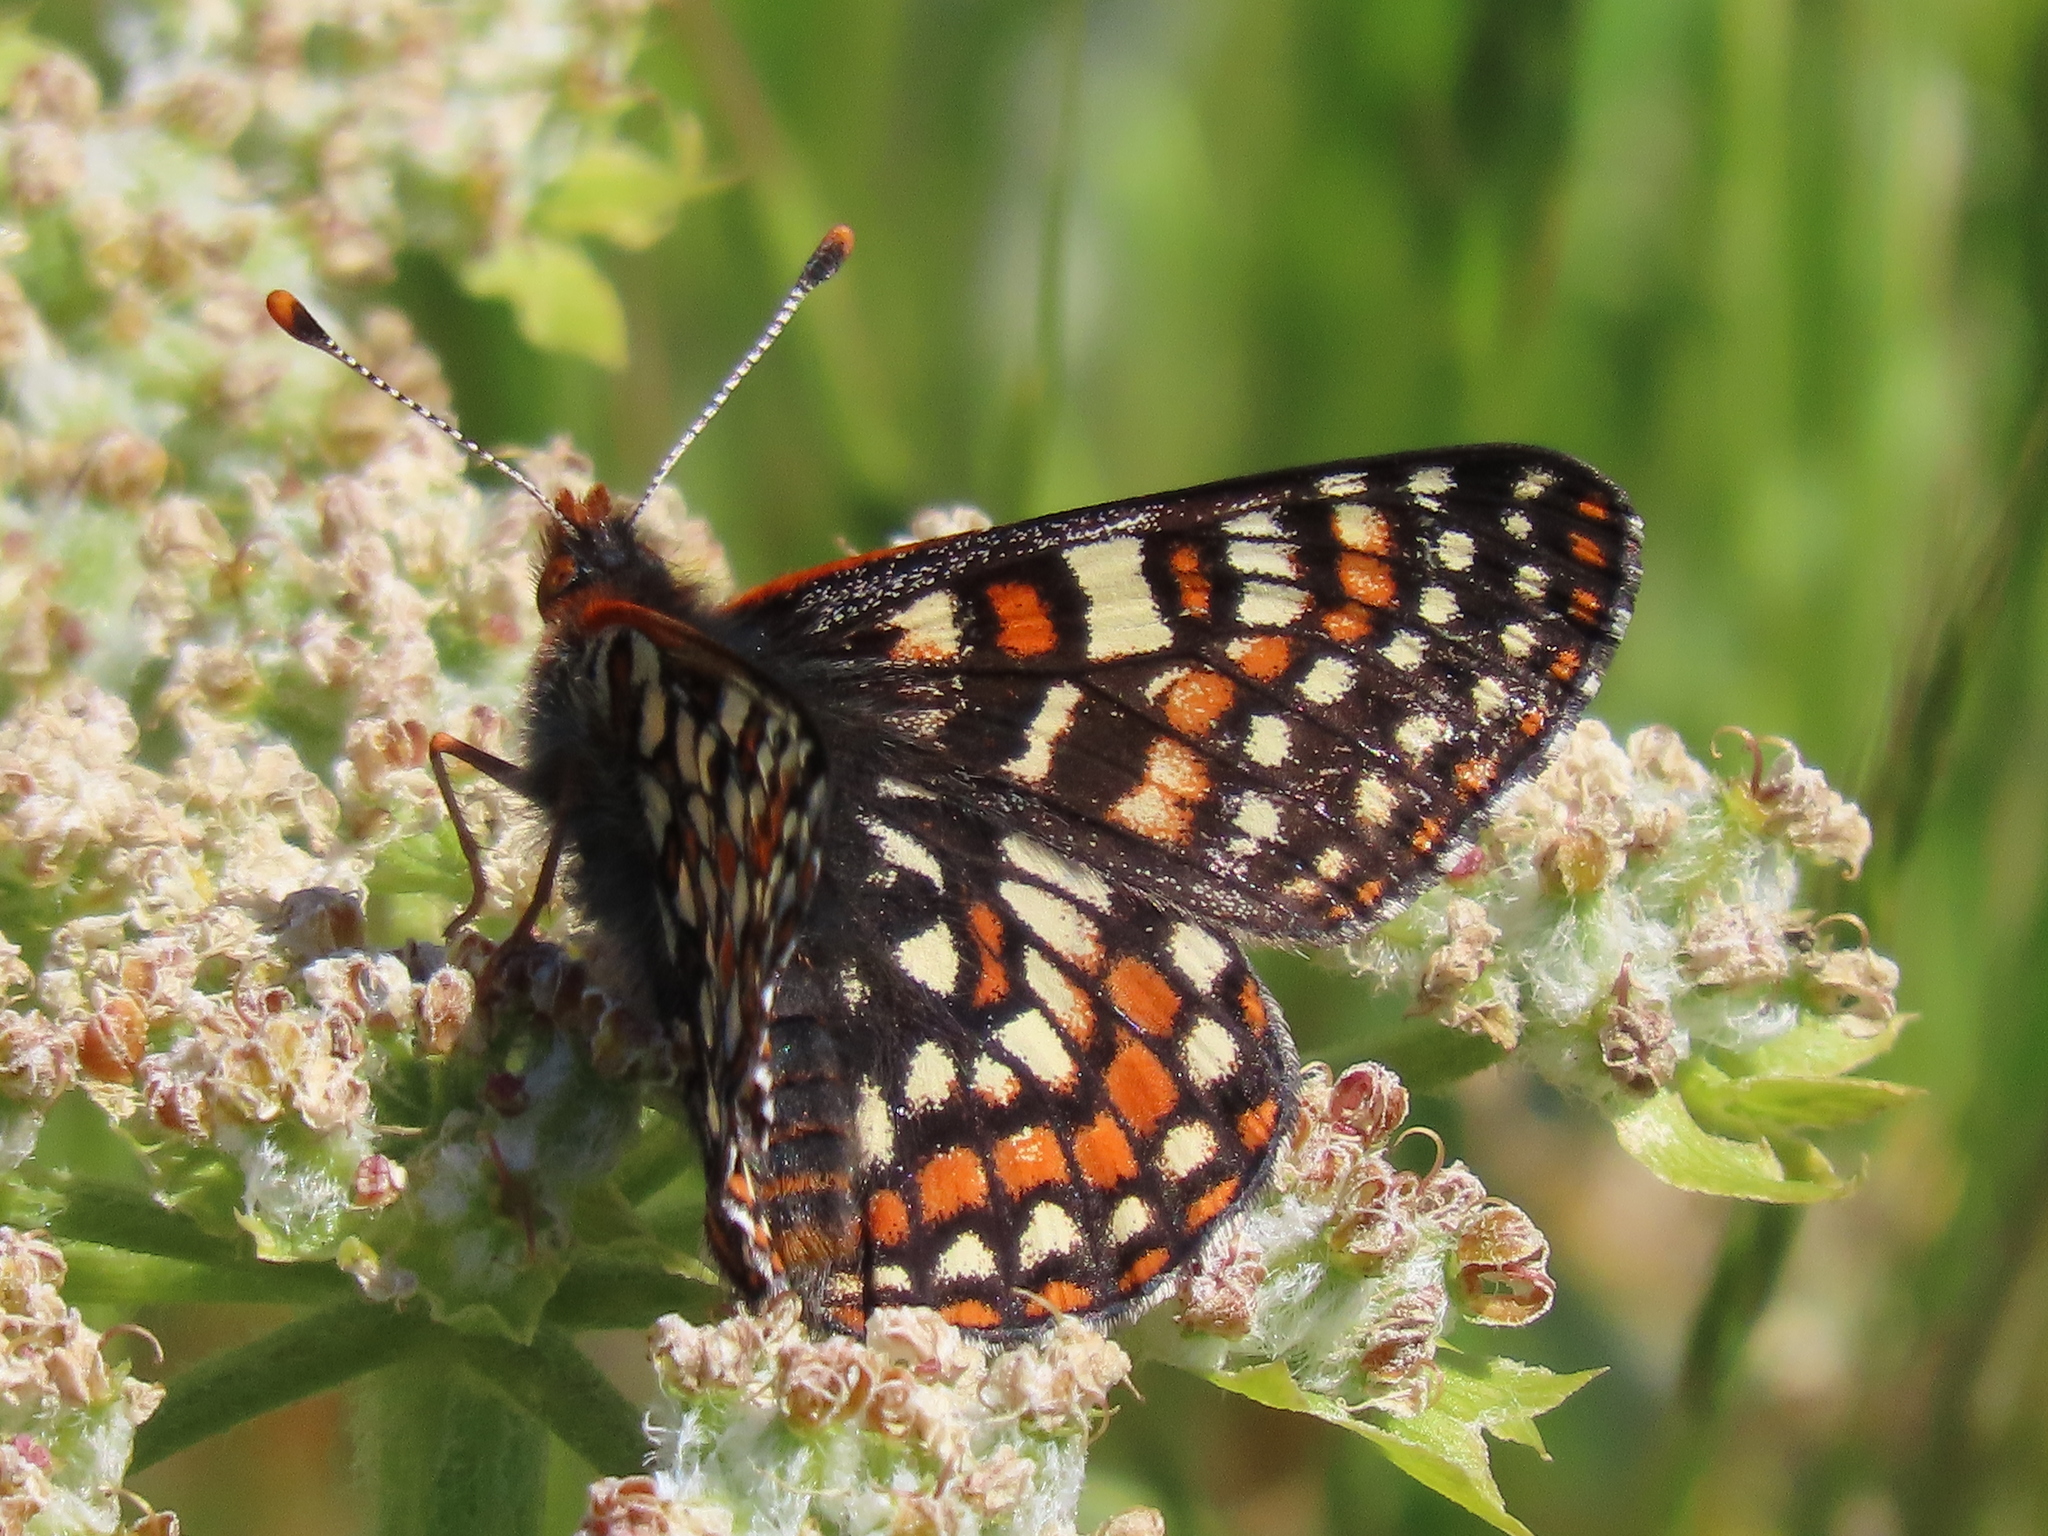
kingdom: Animalia
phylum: Arthropoda
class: Insecta
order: Lepidoptera
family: Nymphalidae
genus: Occidryas
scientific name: Occidryas editha
